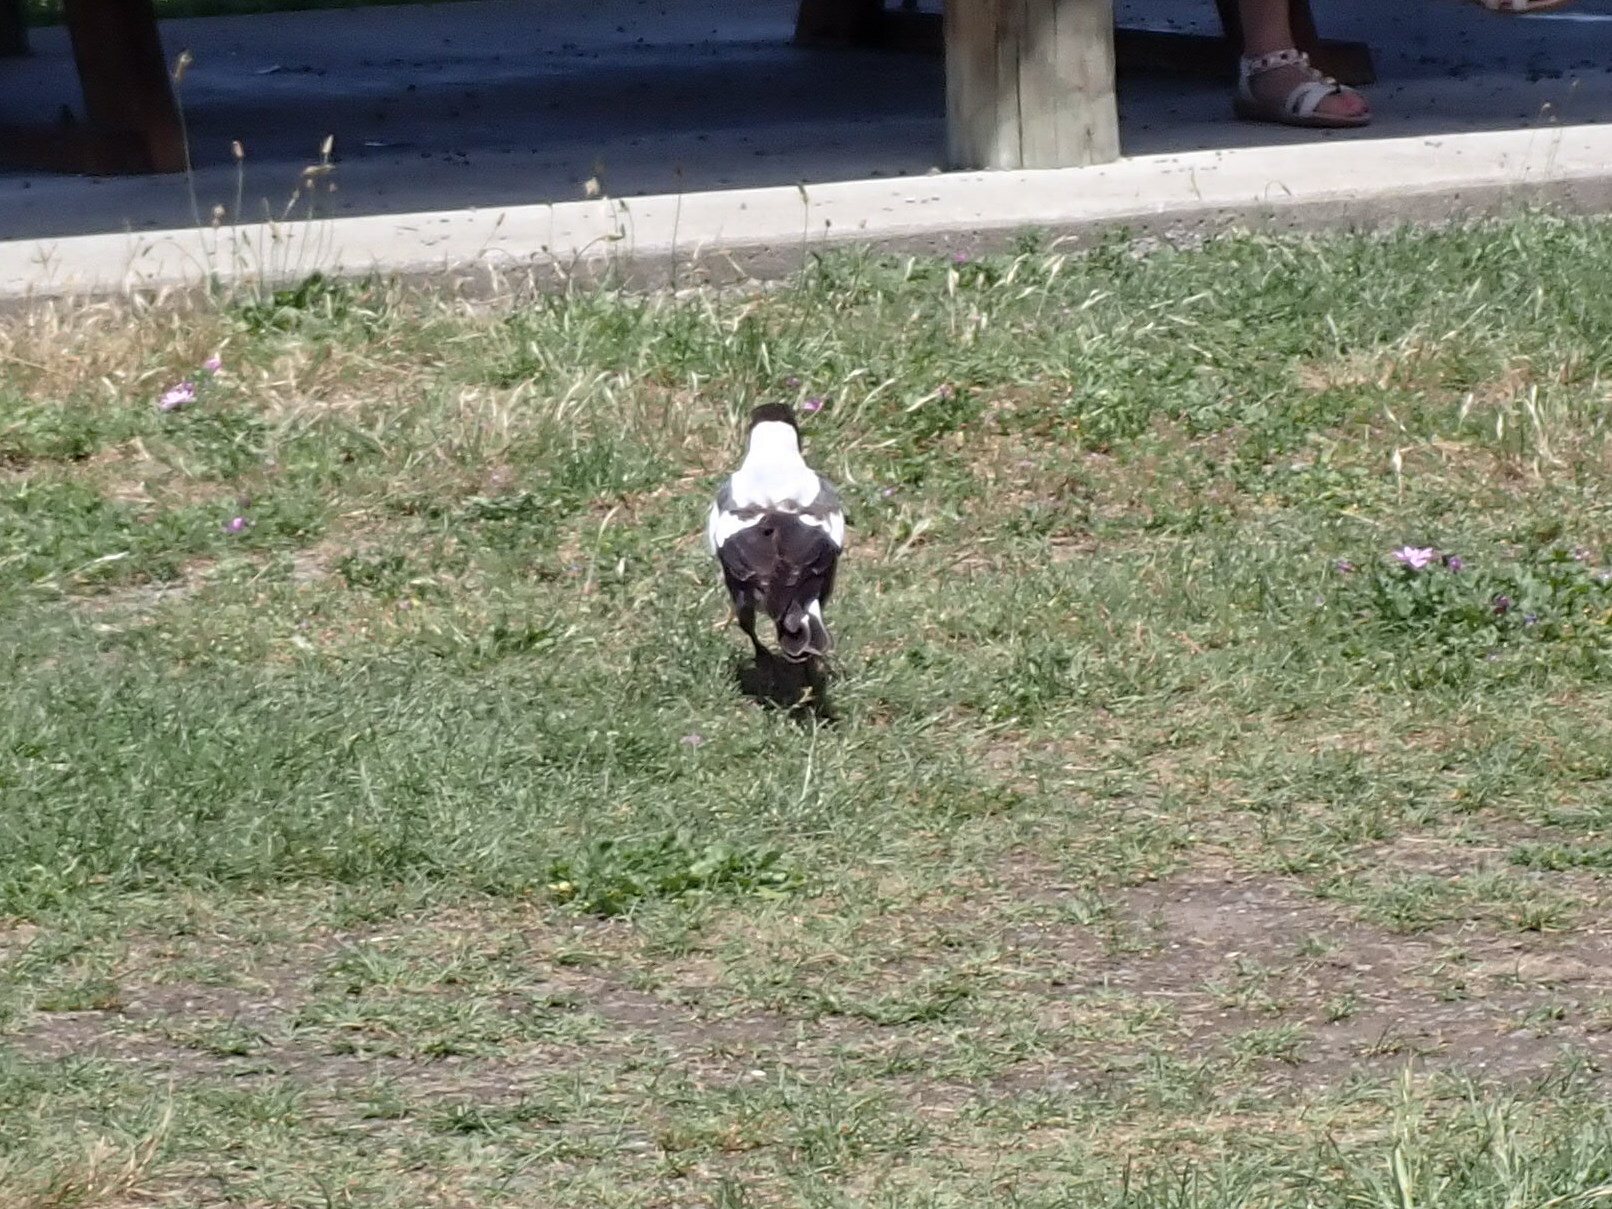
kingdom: Animalia
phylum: Chordata
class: Aves
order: Passeriformes
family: Cracticidae
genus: Gymnorhina
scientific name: Gymnorhina tibicen
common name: Australian magpie
